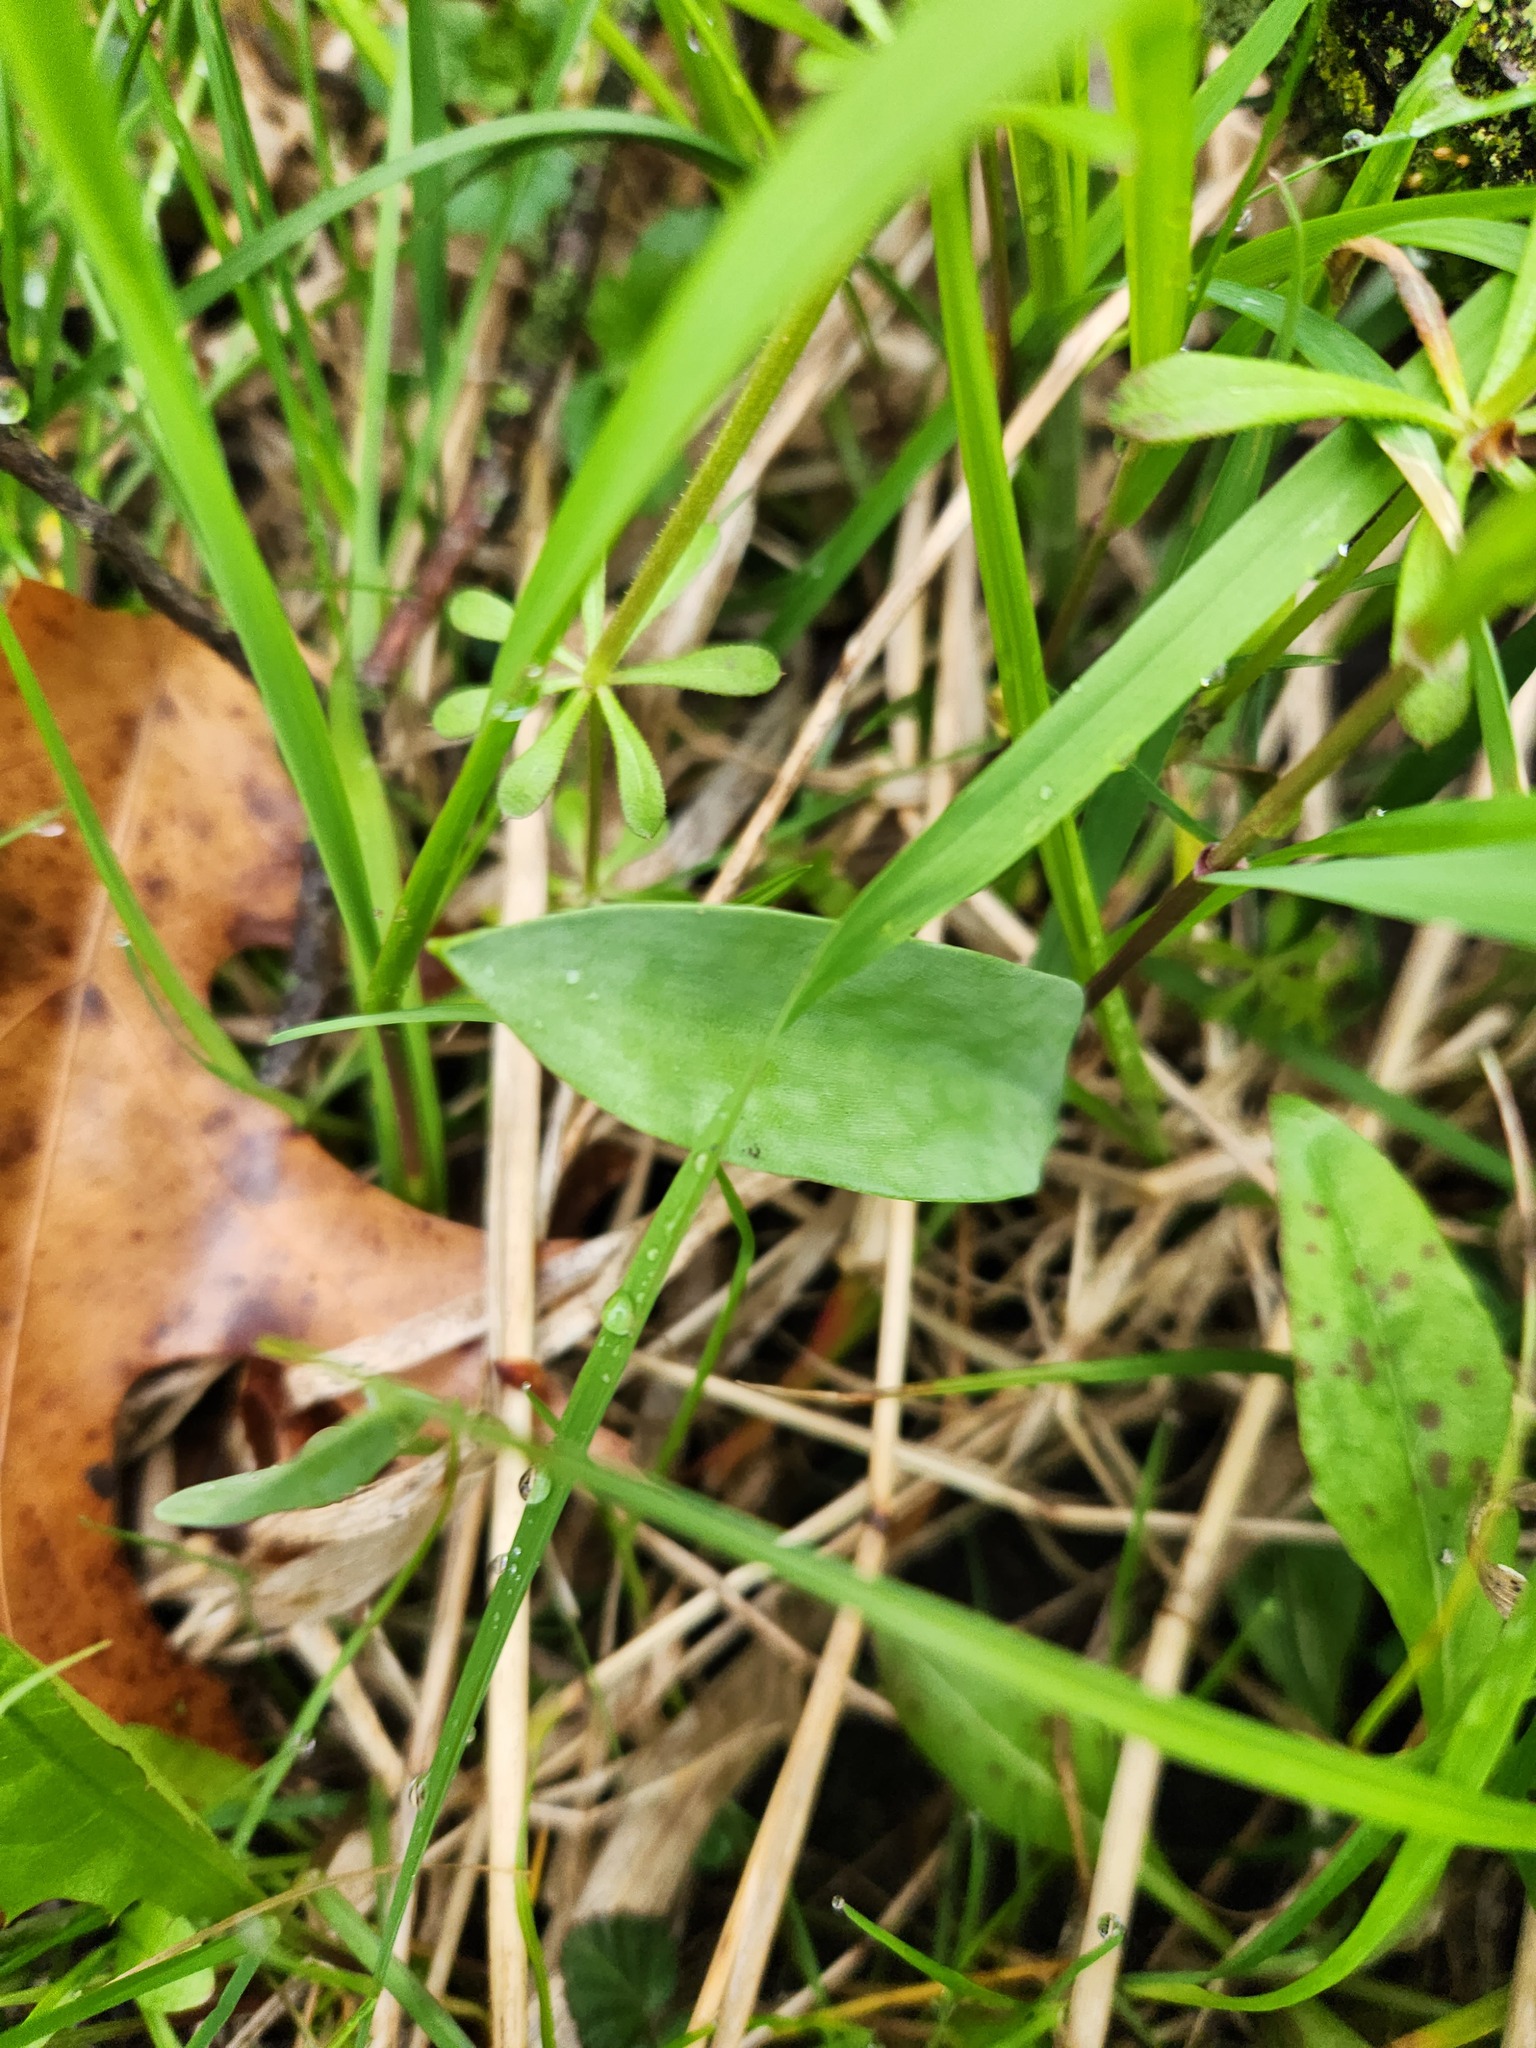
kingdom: Plantae
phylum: Tracheophyta
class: Liliopsida
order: Liliales
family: Liliaceae
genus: Erythronium
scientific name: Erythronium albidum
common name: White trout-lily
